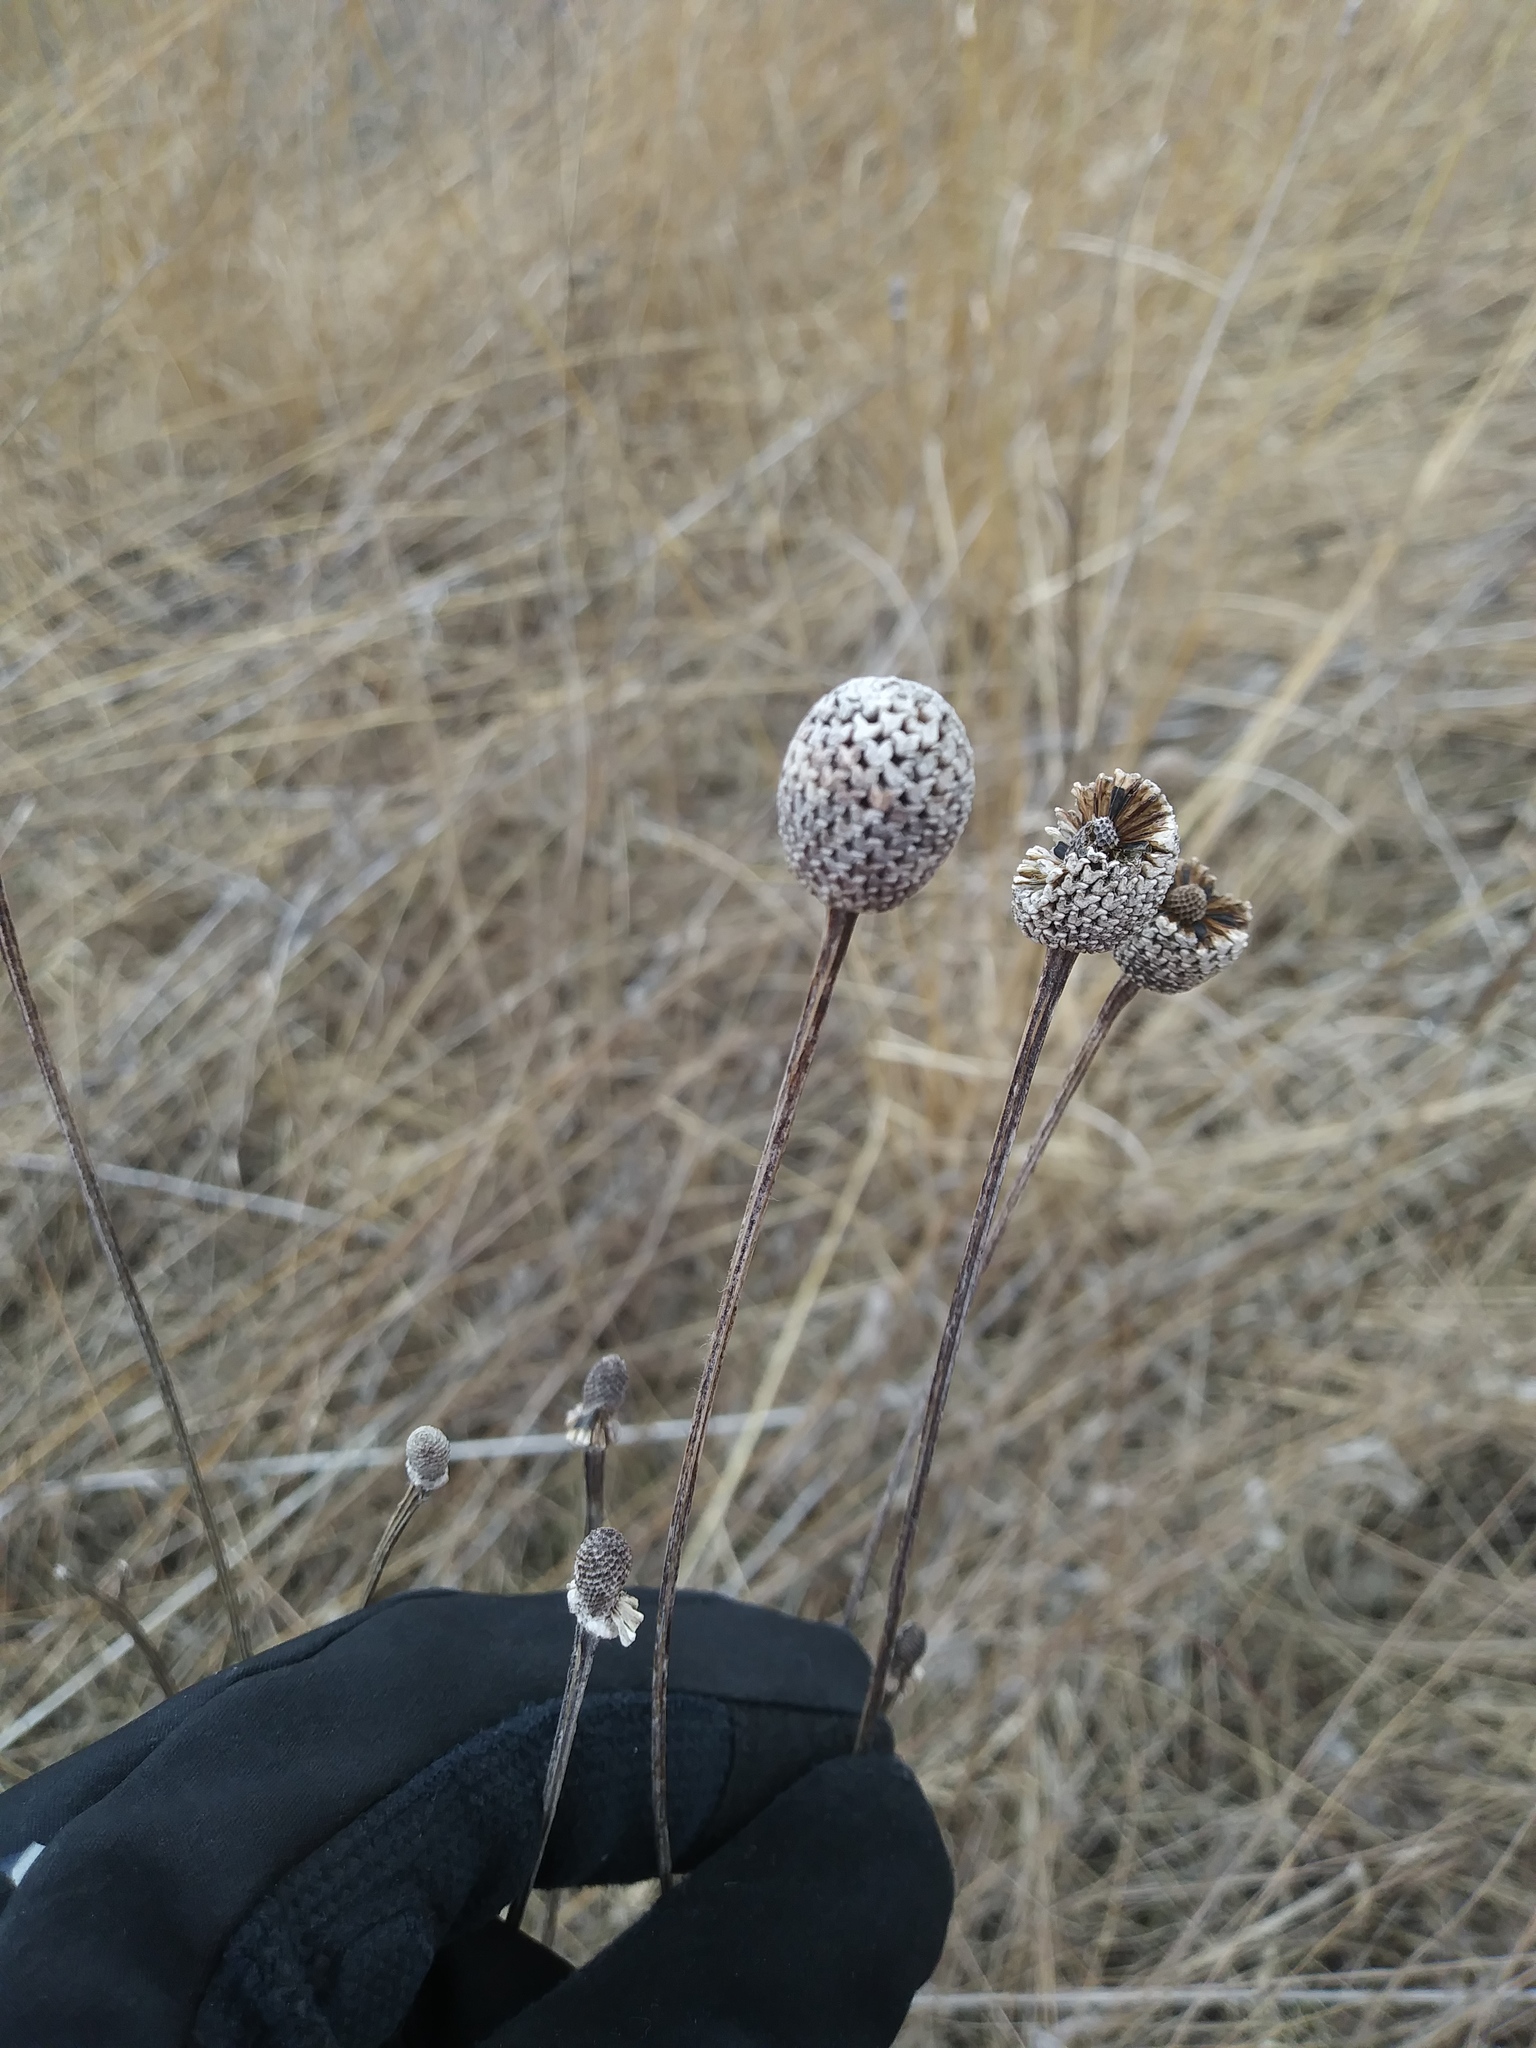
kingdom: Plantae
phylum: Tracheophyta
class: Magnoliopsida
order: Asterales
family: Asteraceae
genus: Ratibida
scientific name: Ratibida pinnata
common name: Drooping prairie-coneflower
